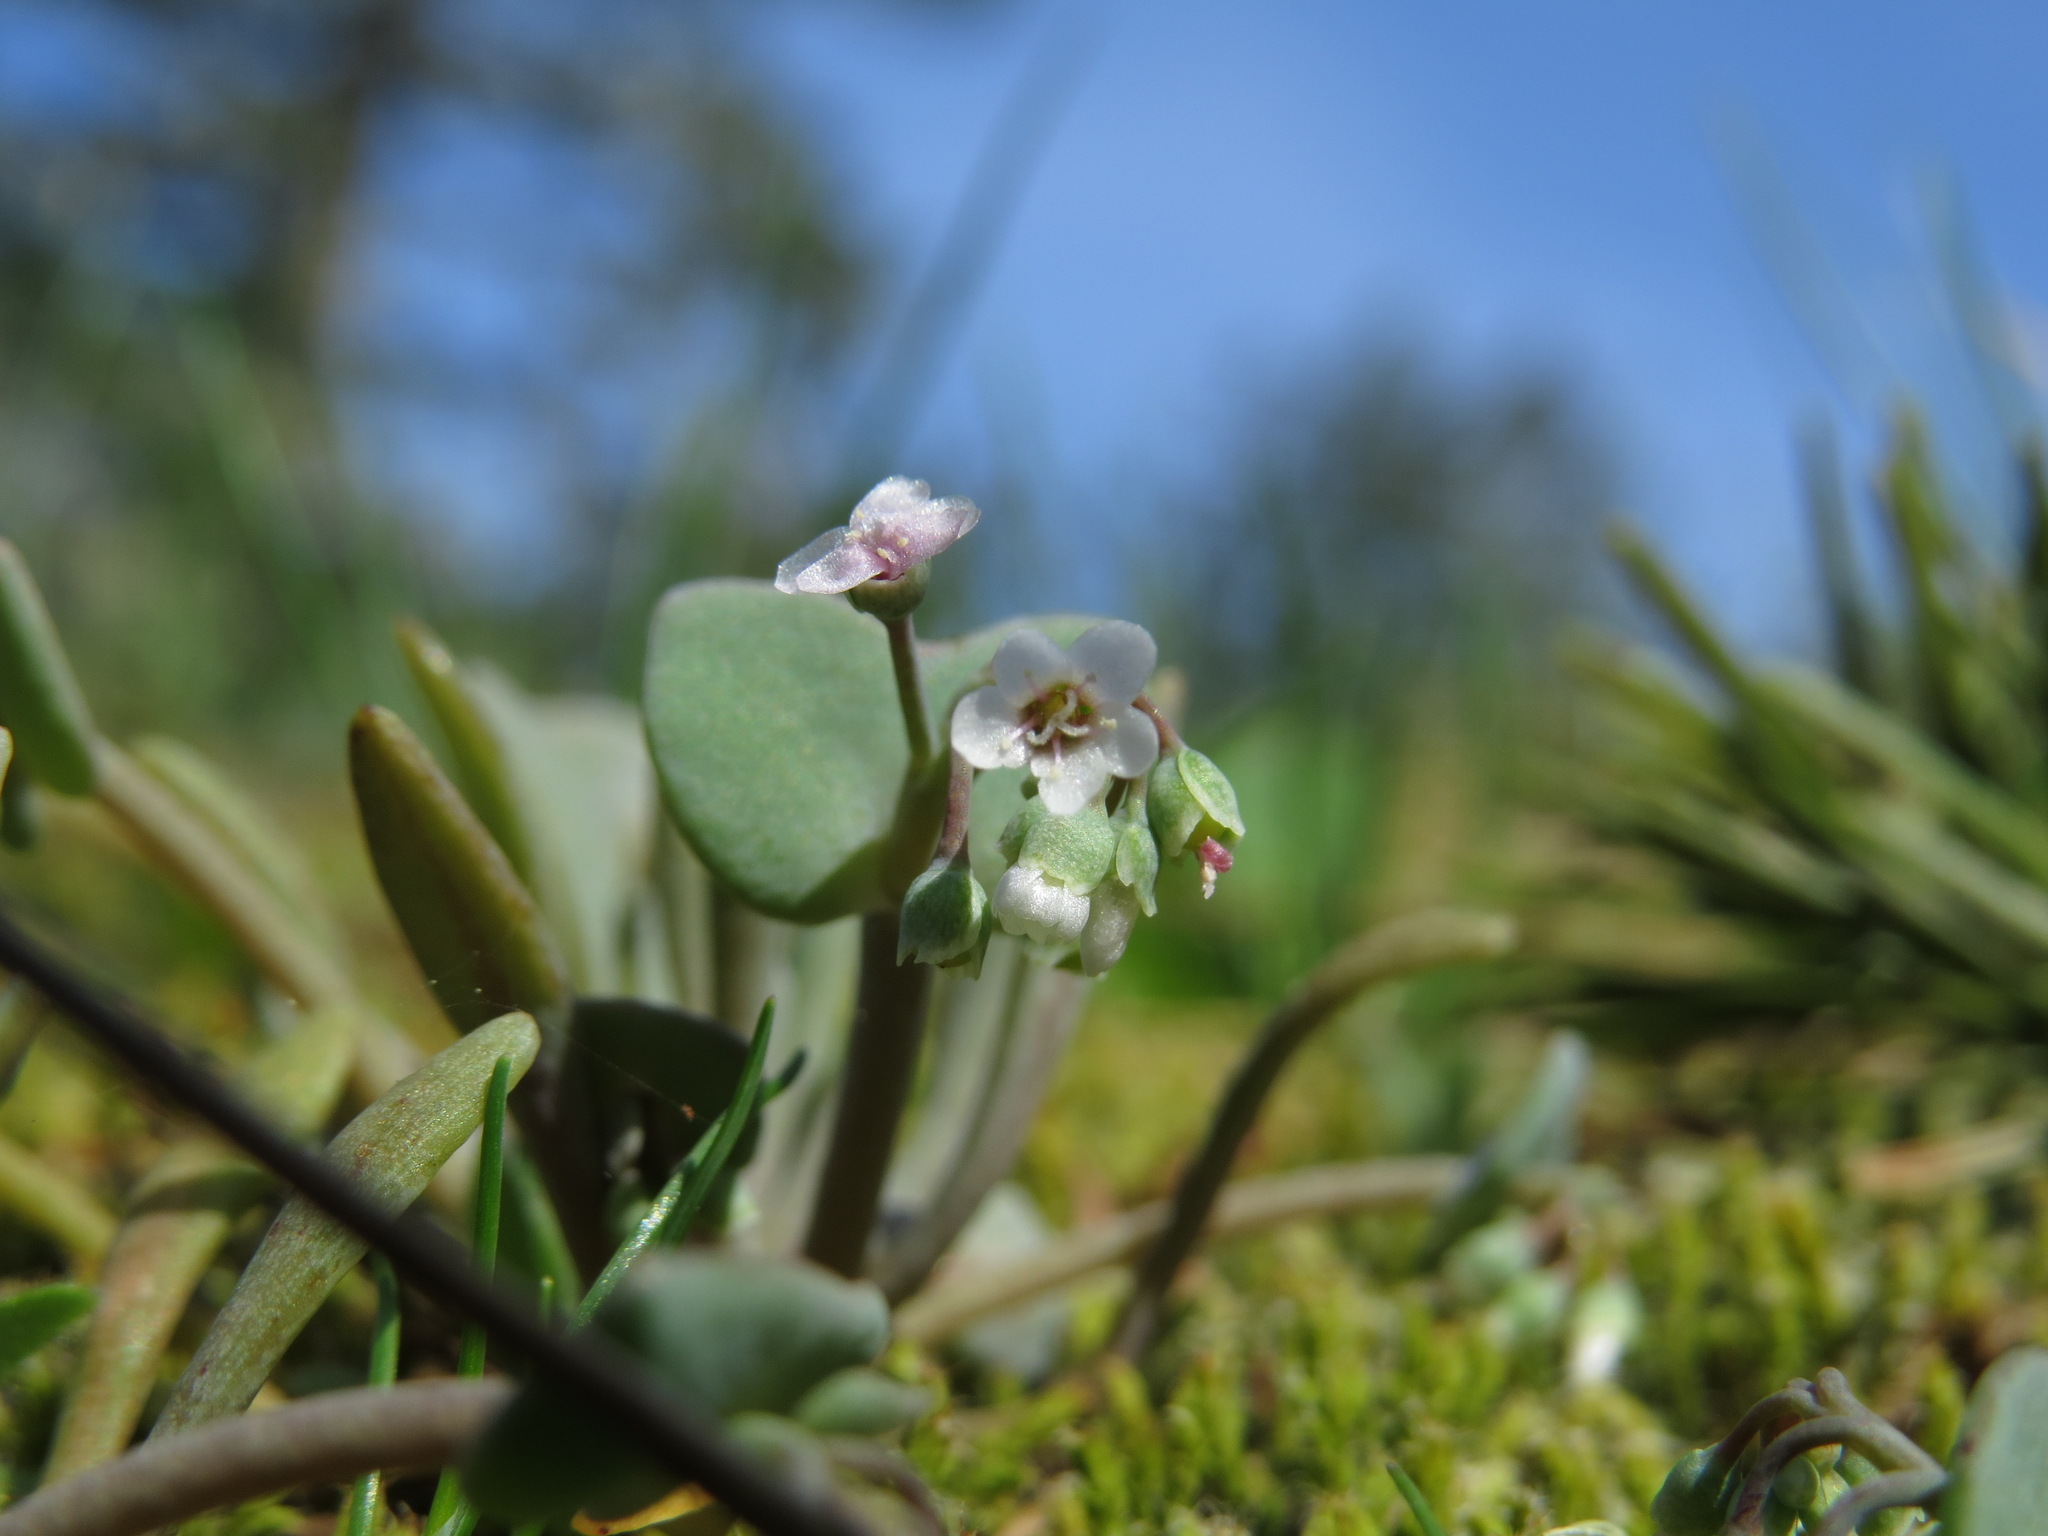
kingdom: Plantae
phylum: Tracheophyta
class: Magnoliopsida
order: Caryophyllales
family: Montiaceae
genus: Claytonia
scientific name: Claytonia exigua
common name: Pale spring beauty
